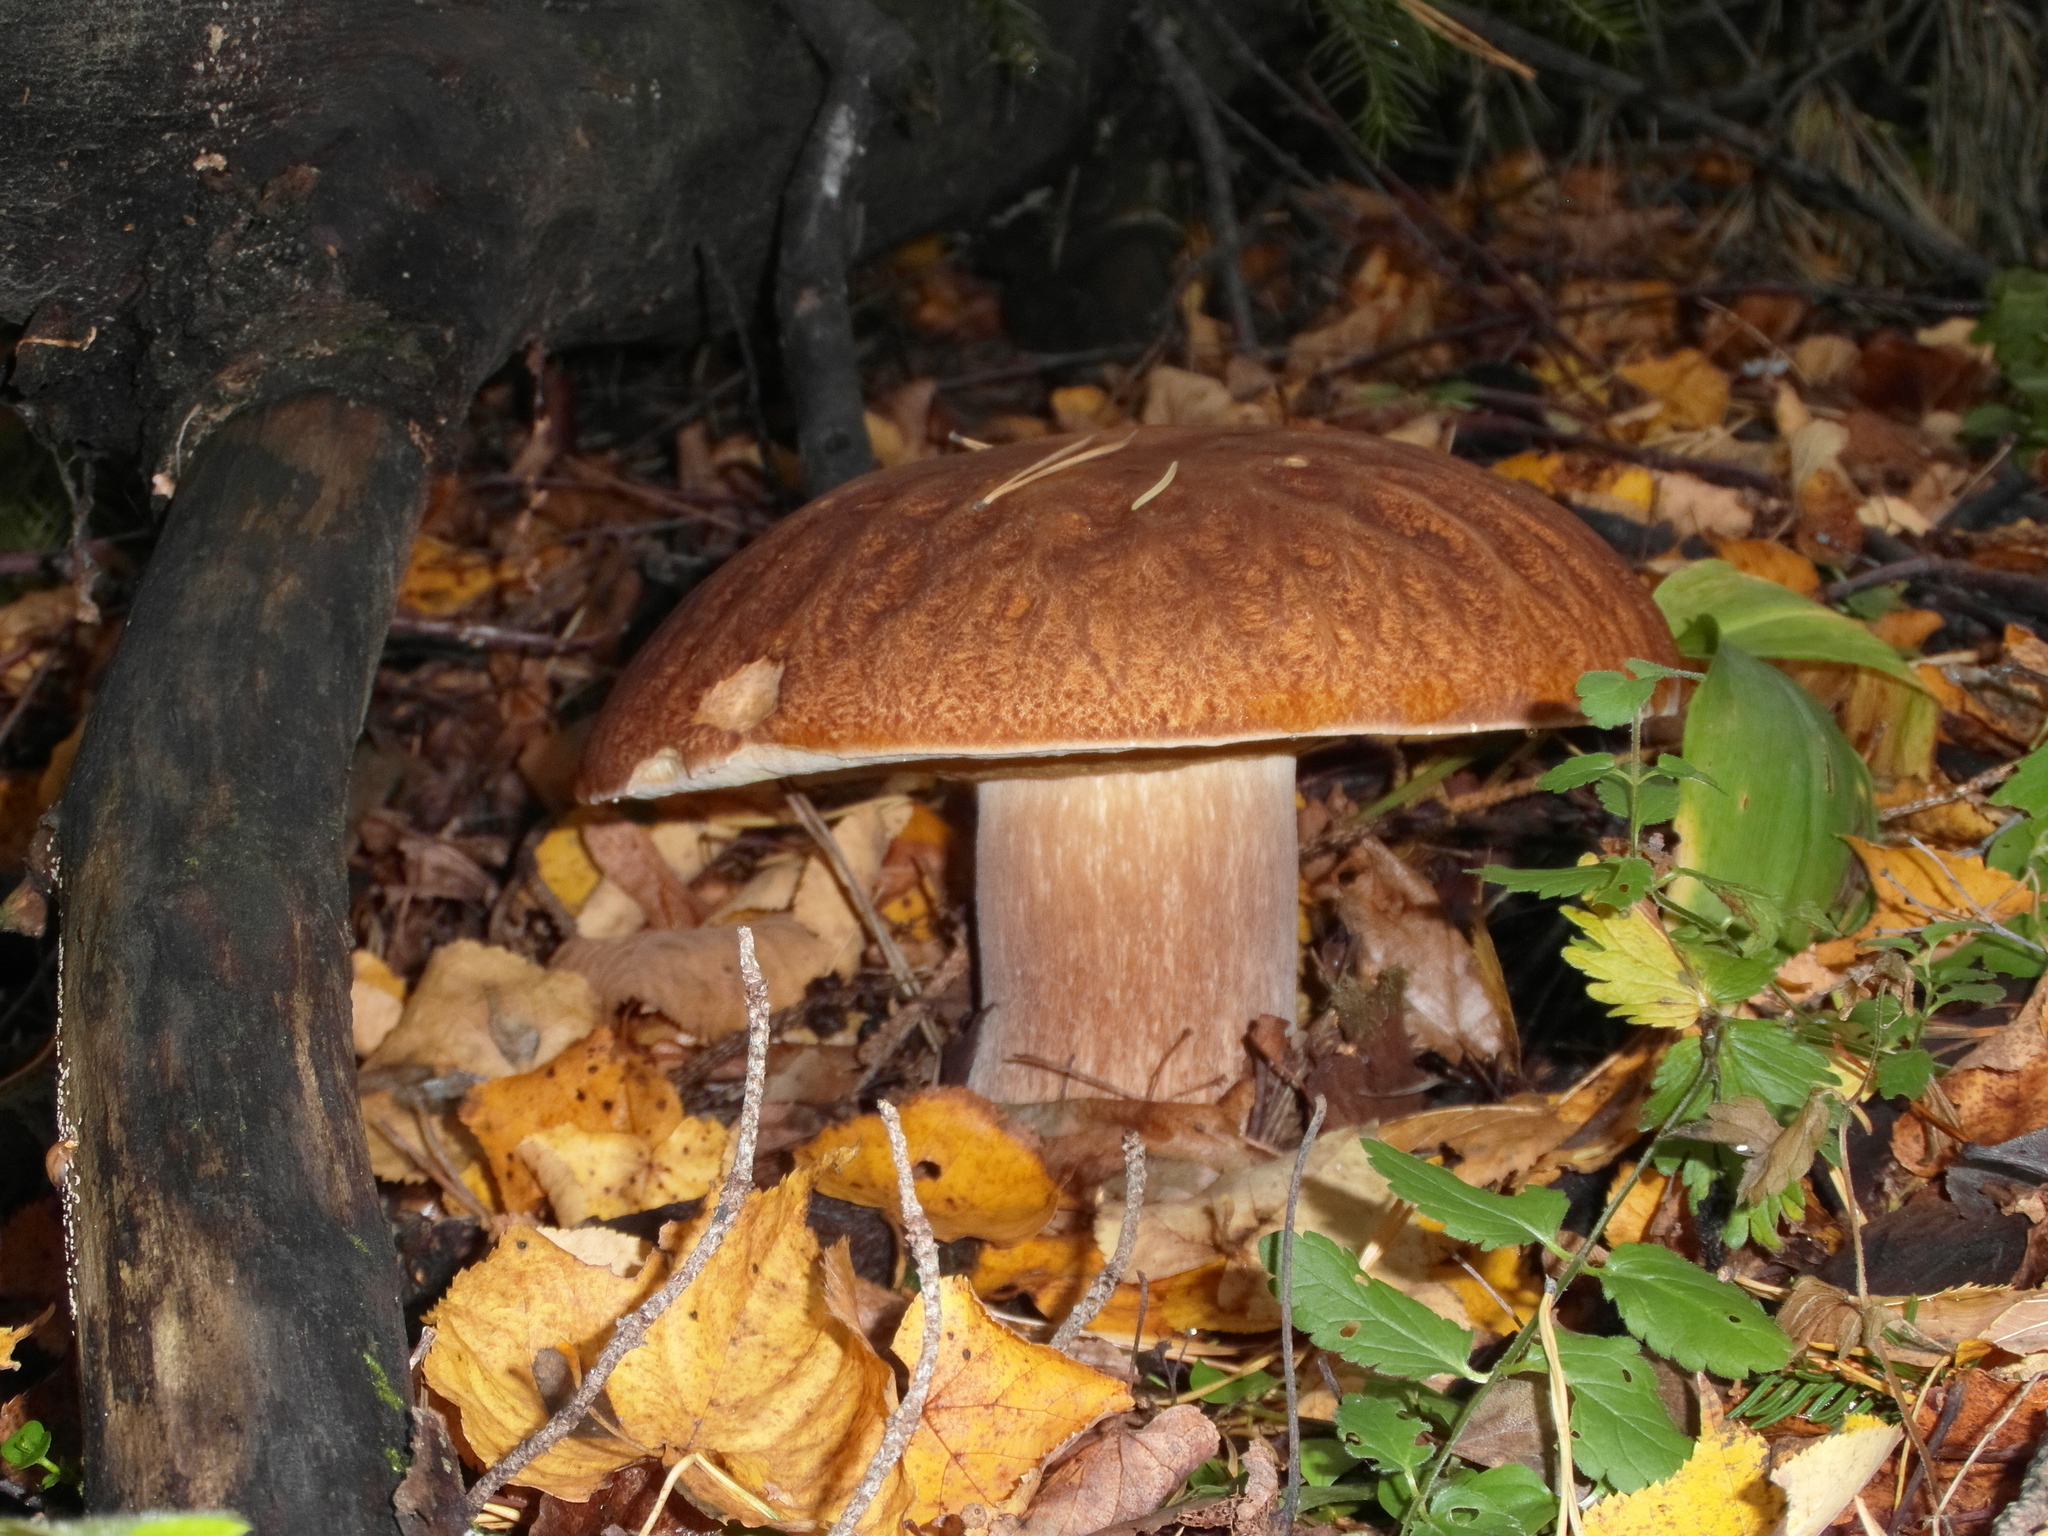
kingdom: Fungi
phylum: Basidiomycota
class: Agaricomycetes
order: Boletales
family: Boletaceae
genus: Boletus
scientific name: Boletus reticulatus
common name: Summer bolete
